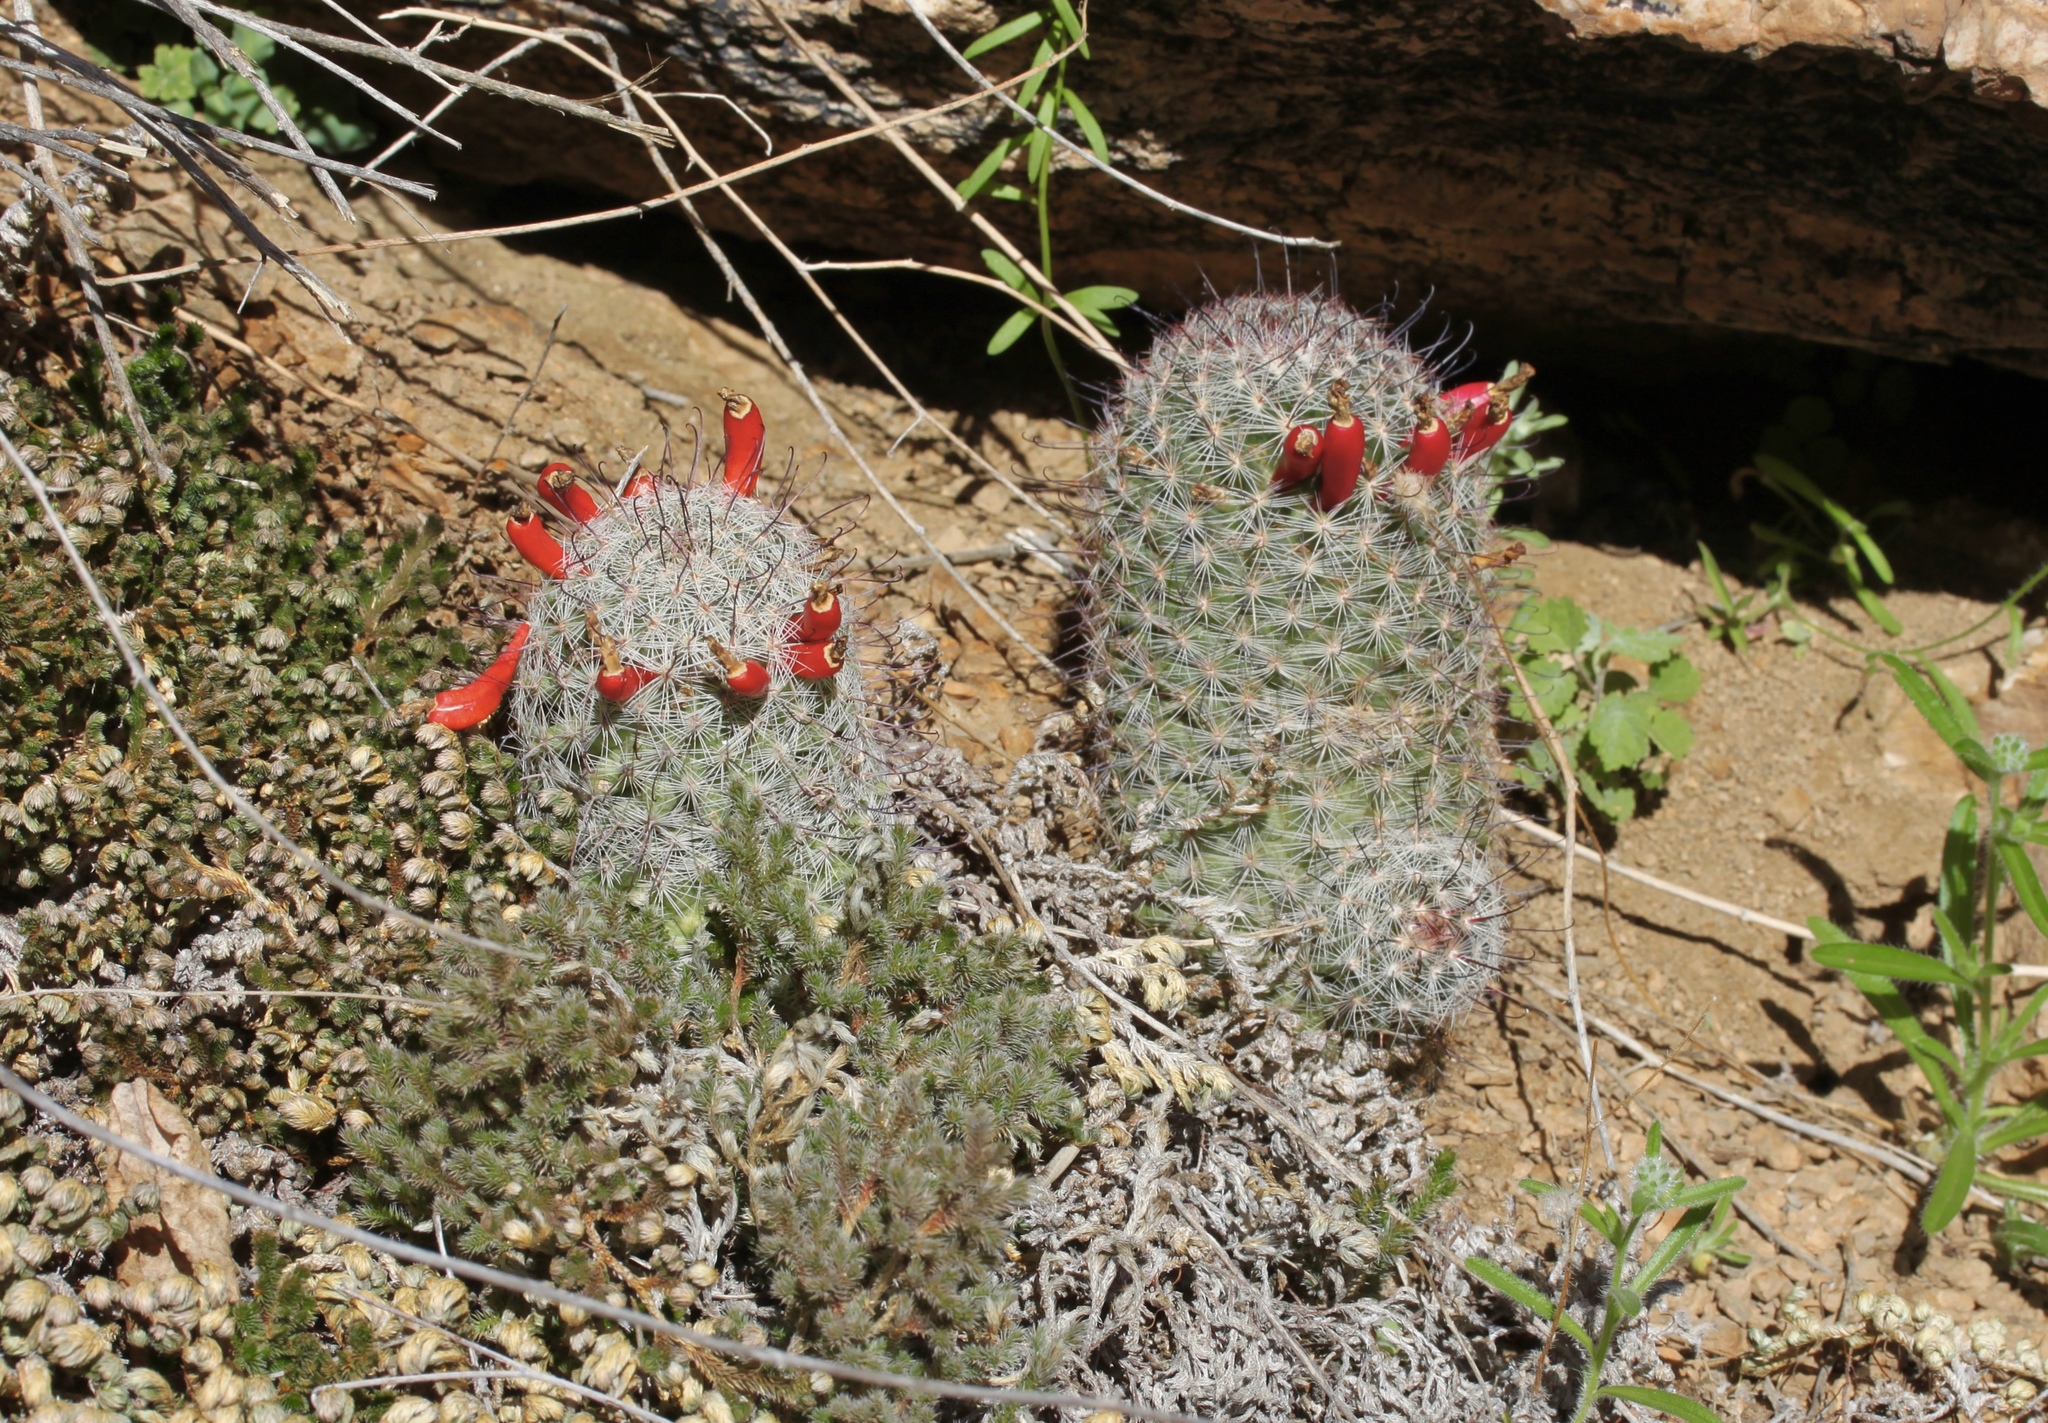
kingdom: Plantae
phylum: Tracheophyta
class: Magnoliopsida
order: Caryophyllales
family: Cactaceae
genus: Cochemiea
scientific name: Cochemiea grahamii
